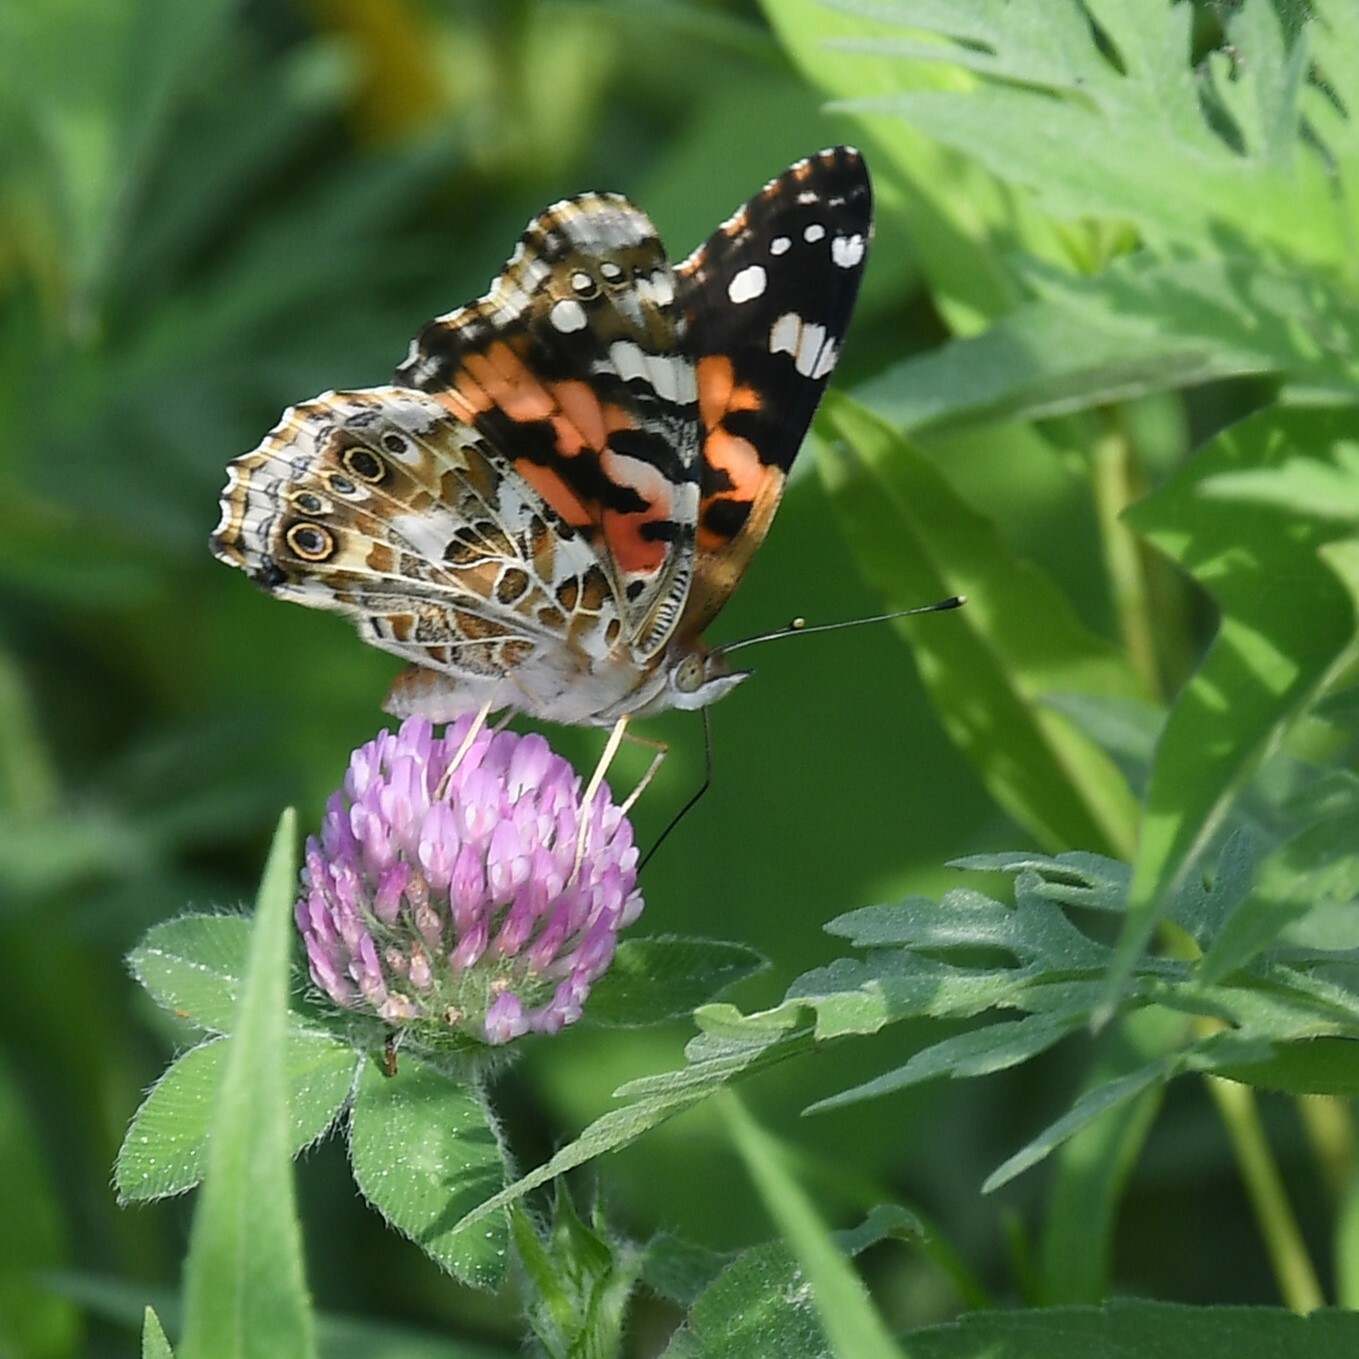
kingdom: Animalia
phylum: Arthropoda
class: Insecta
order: Lepidoptera
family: Nymphalidae
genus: Vanessa
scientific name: Vanessa cardui
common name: Painted lady
